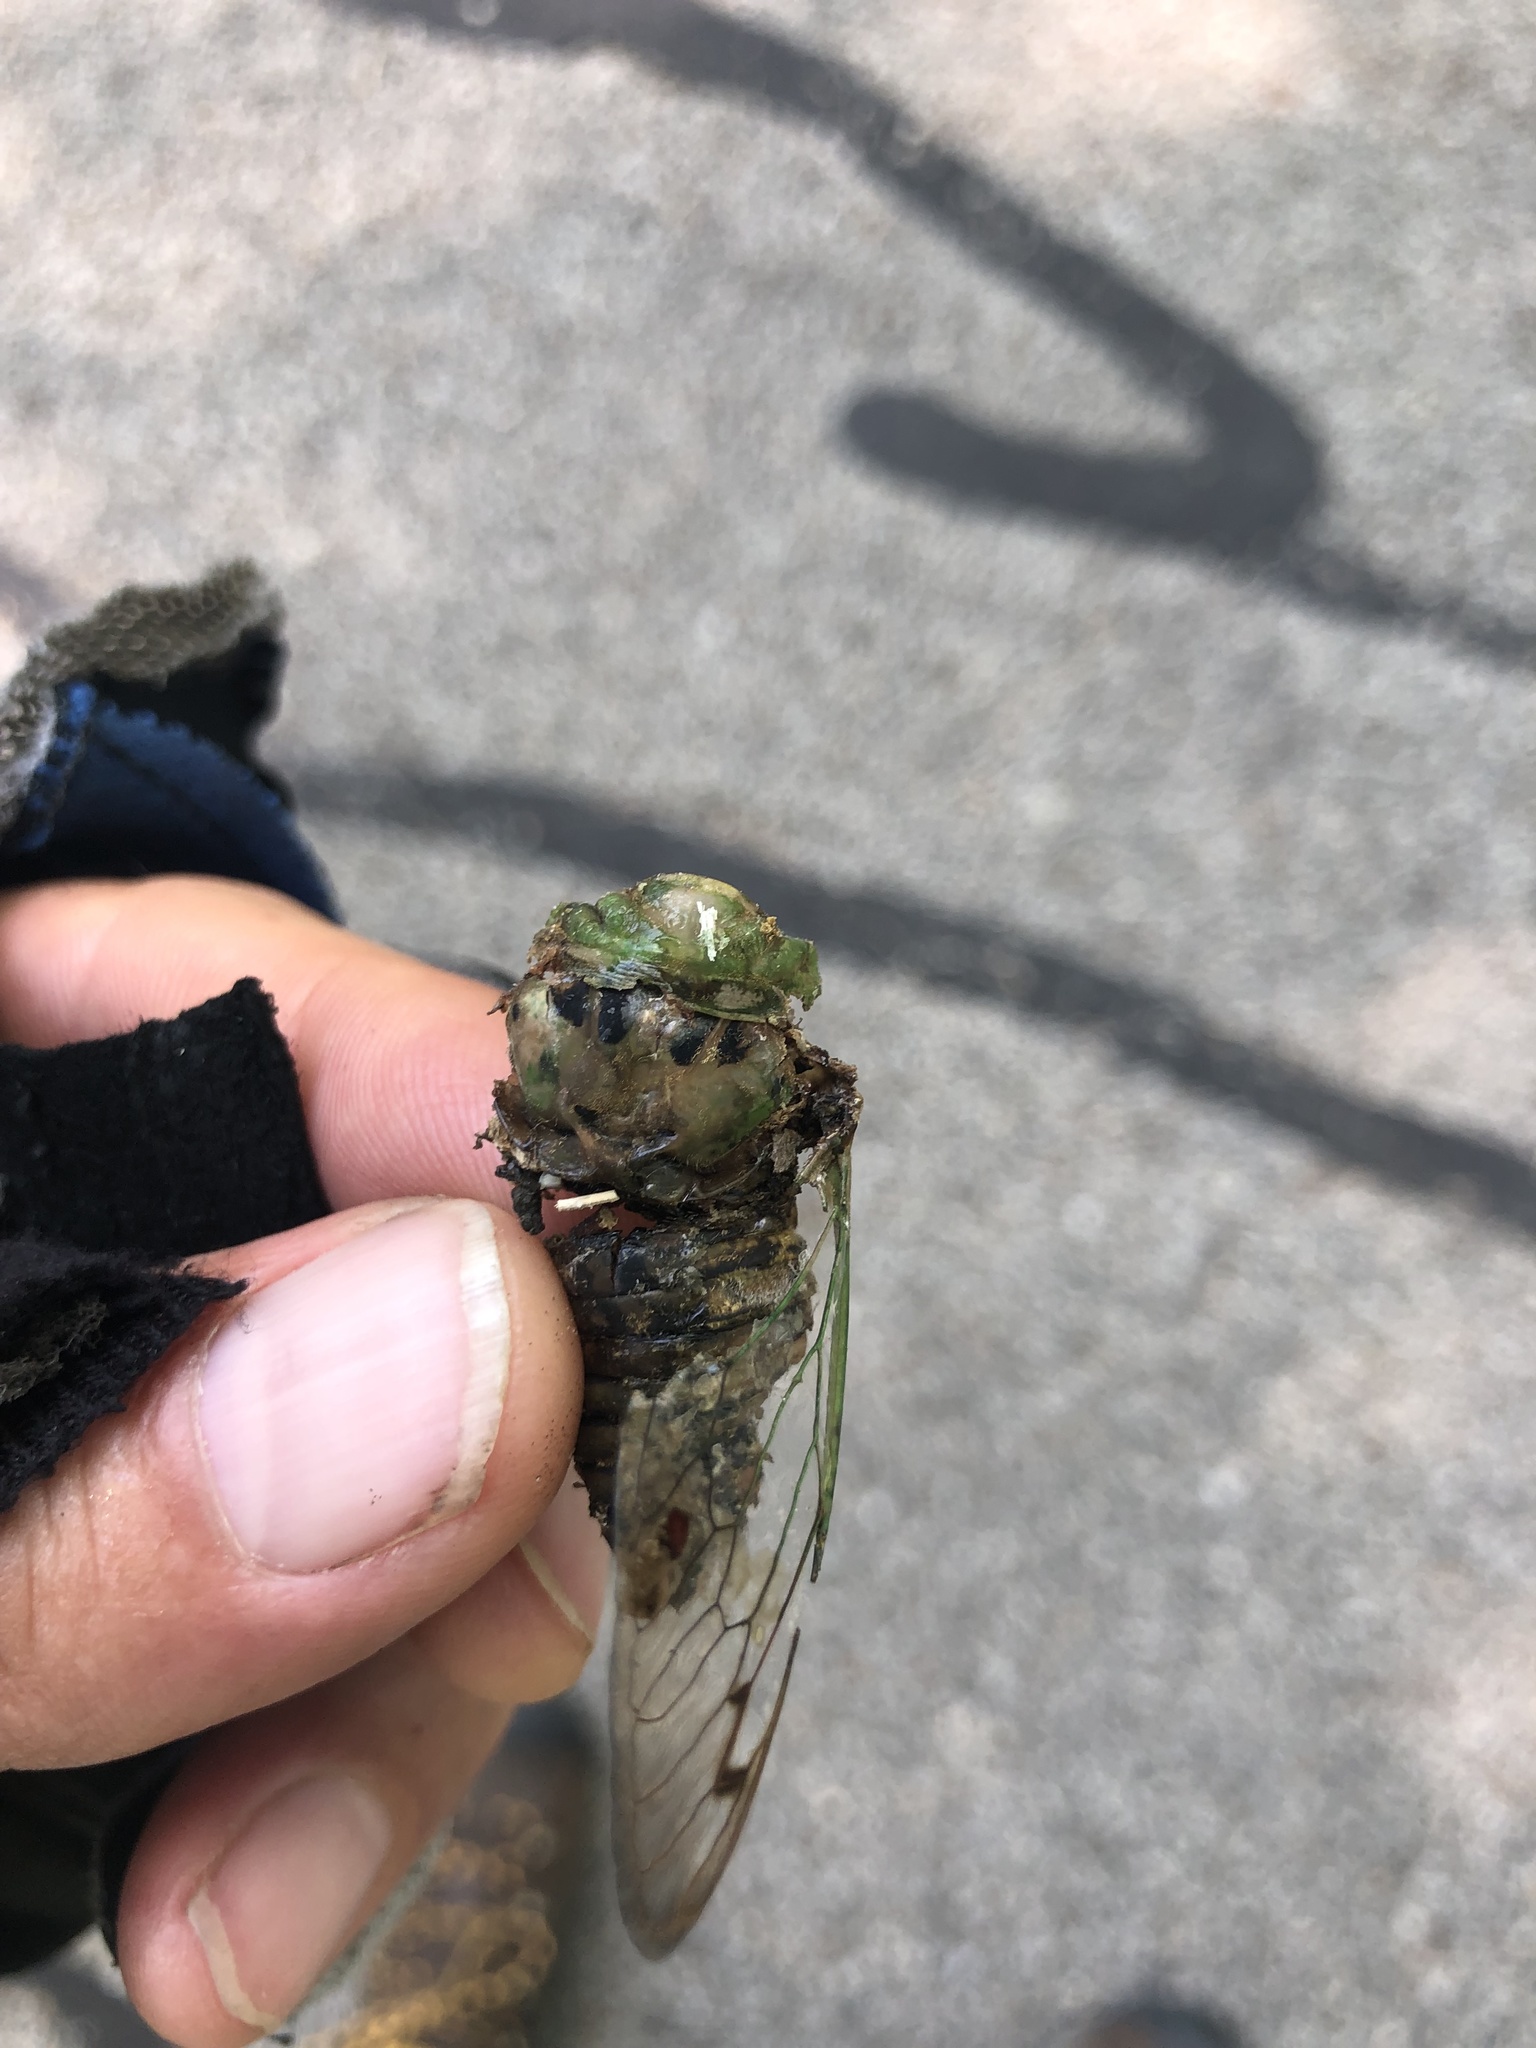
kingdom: Animalia
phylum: Arthropoda
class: Insecta
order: Hemiptera
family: Cicadidae
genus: Neotibicen
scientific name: Neotibicen superbus
